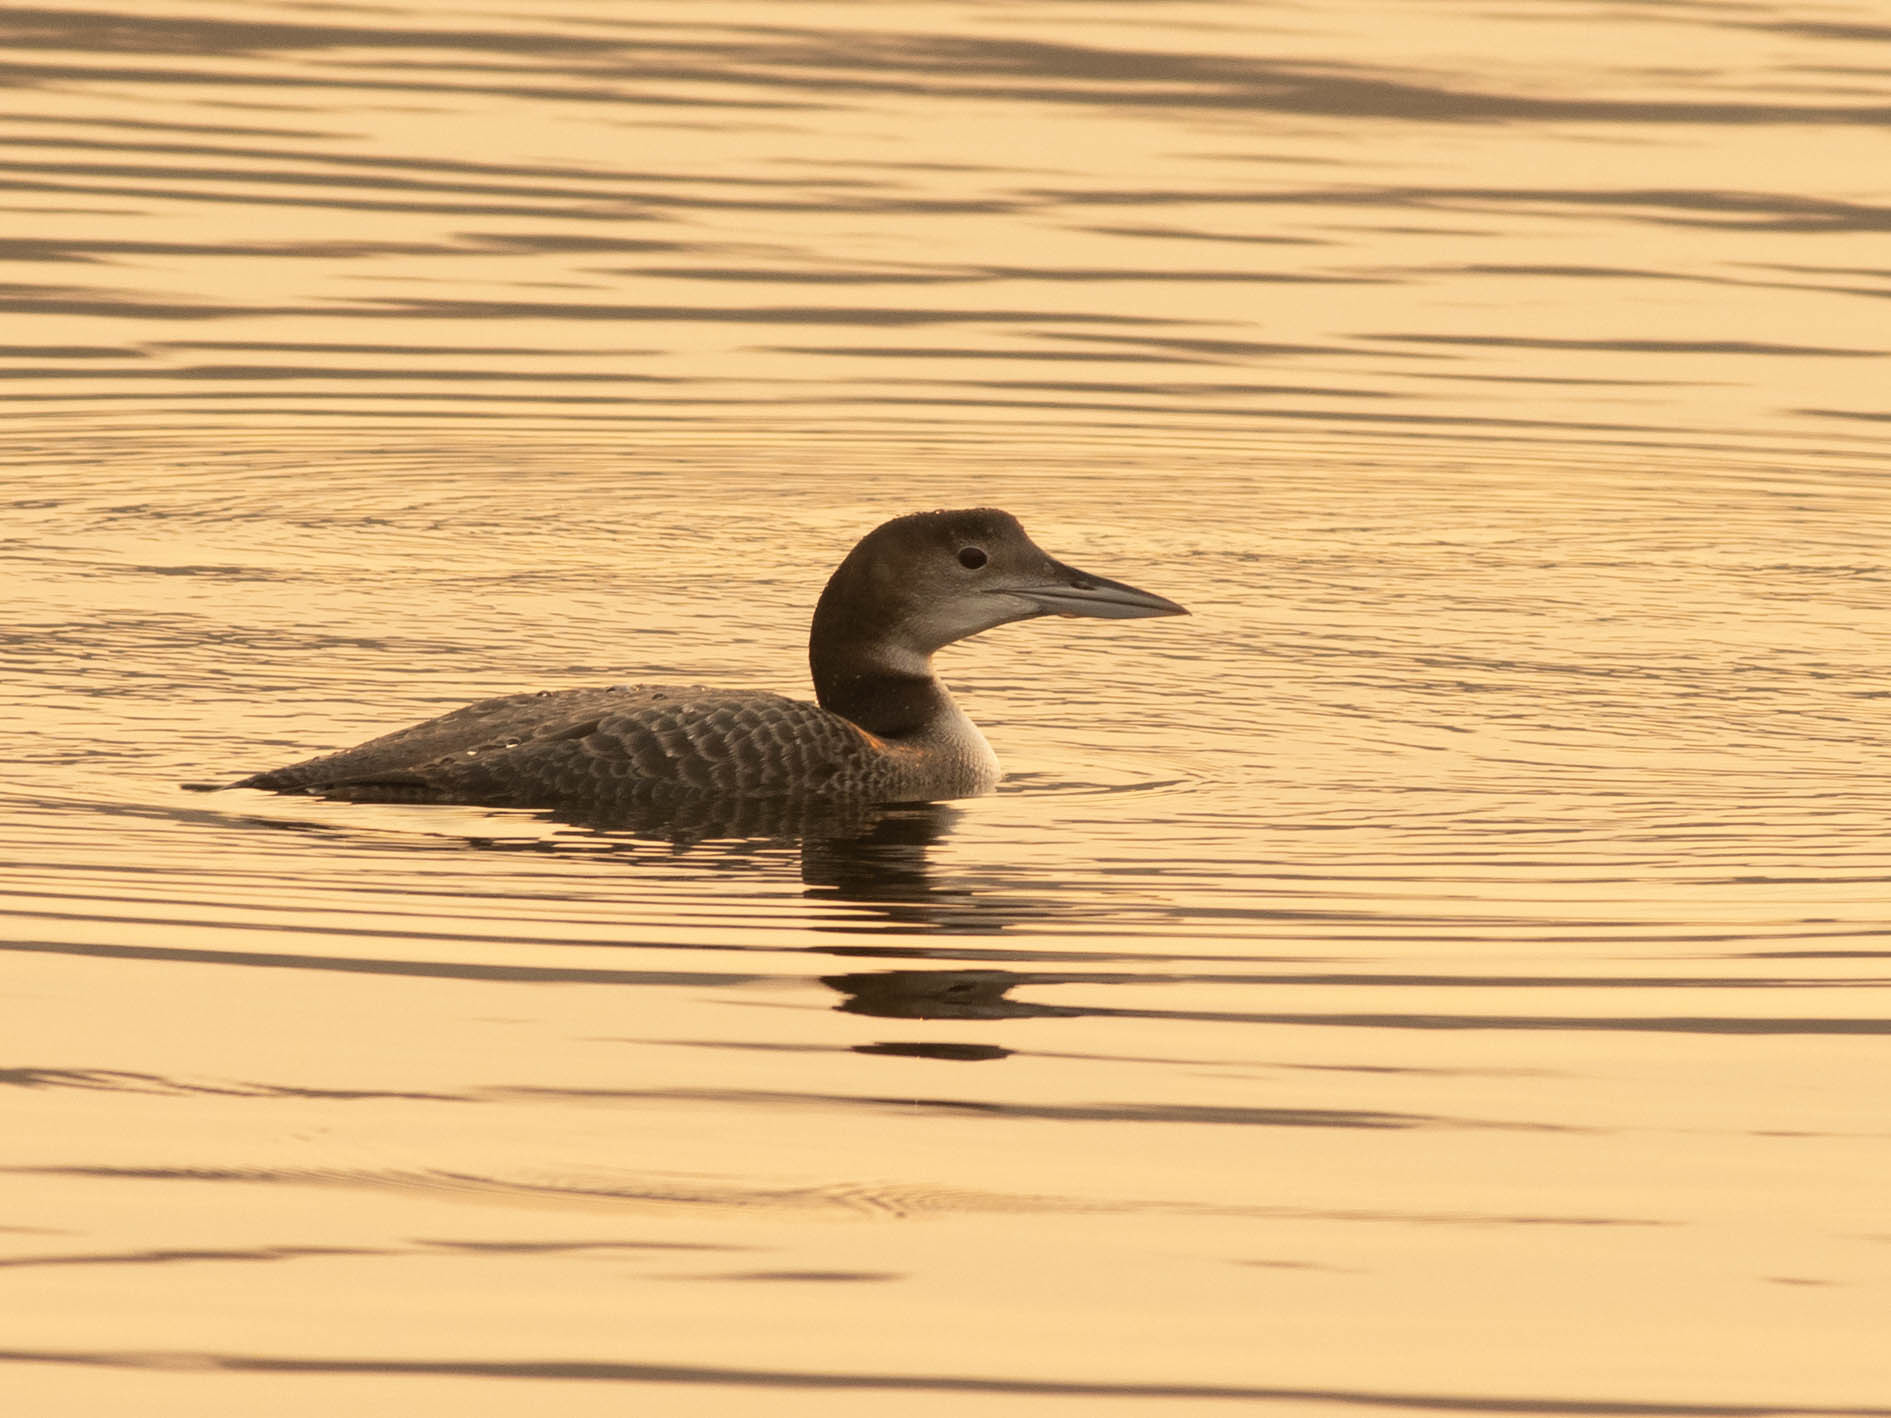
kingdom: Animalia
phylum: Chordata
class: Aves
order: Gaviiformes
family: Gaviidae
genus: Gavia
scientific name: Gavia immer
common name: Common loon
